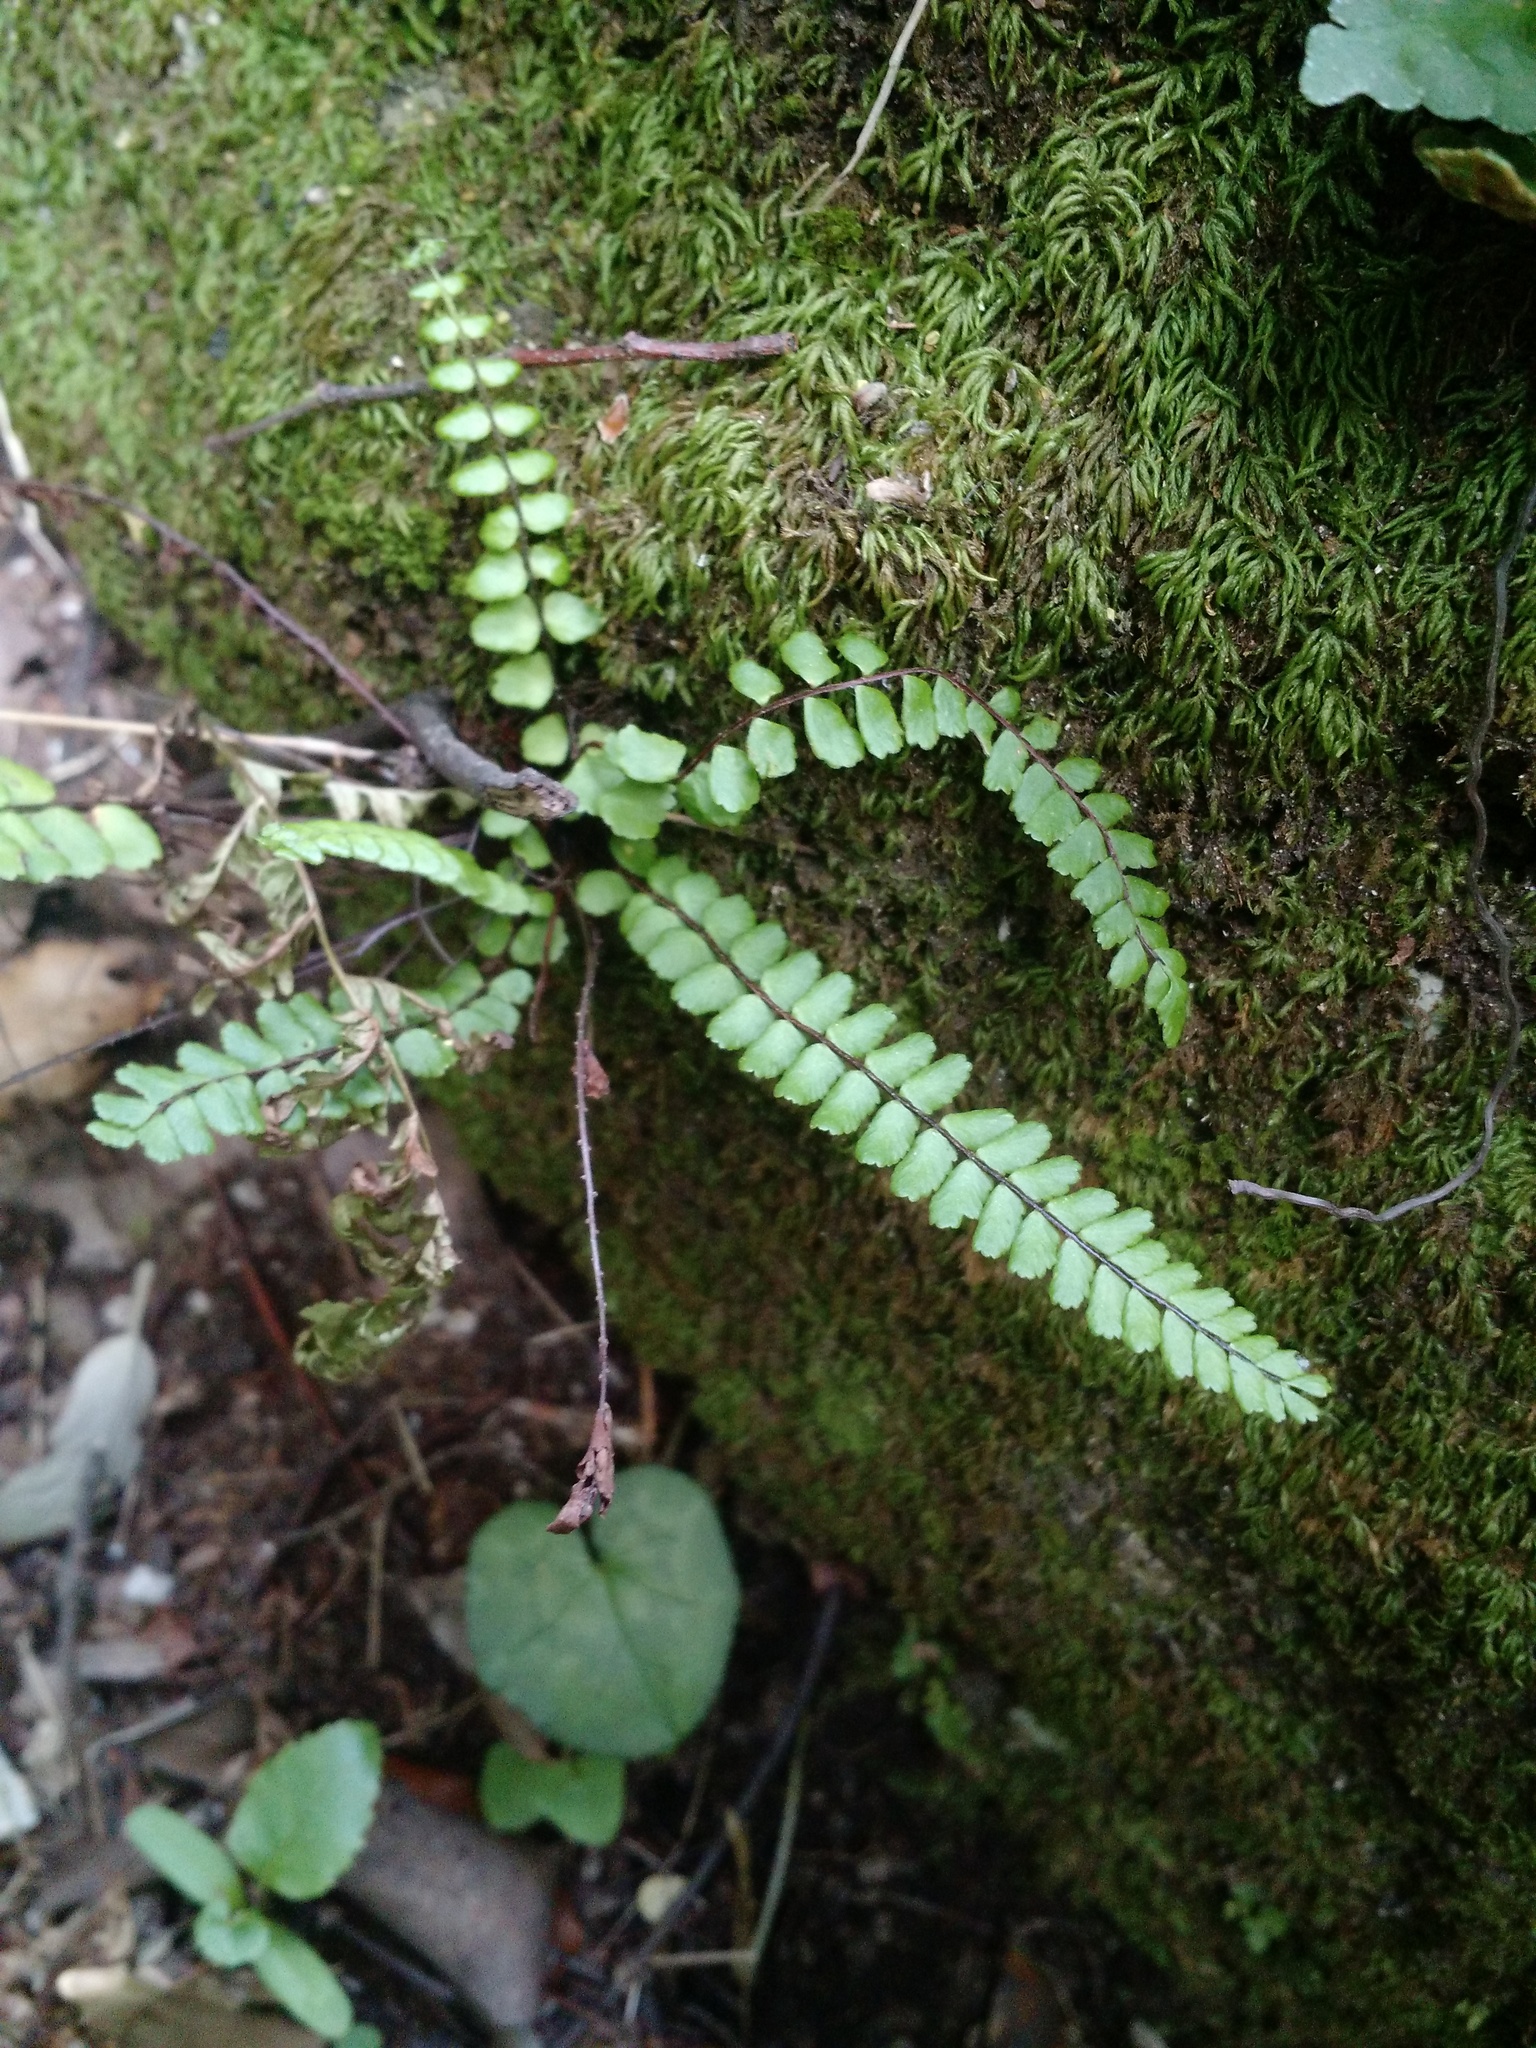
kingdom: Plantae
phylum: Tracheophyta
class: Polypodiopsida
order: Polypodiales
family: Aspleniaceae
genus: Asplenium
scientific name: Asplenium trichomanes
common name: Maidenhair spleenwort
